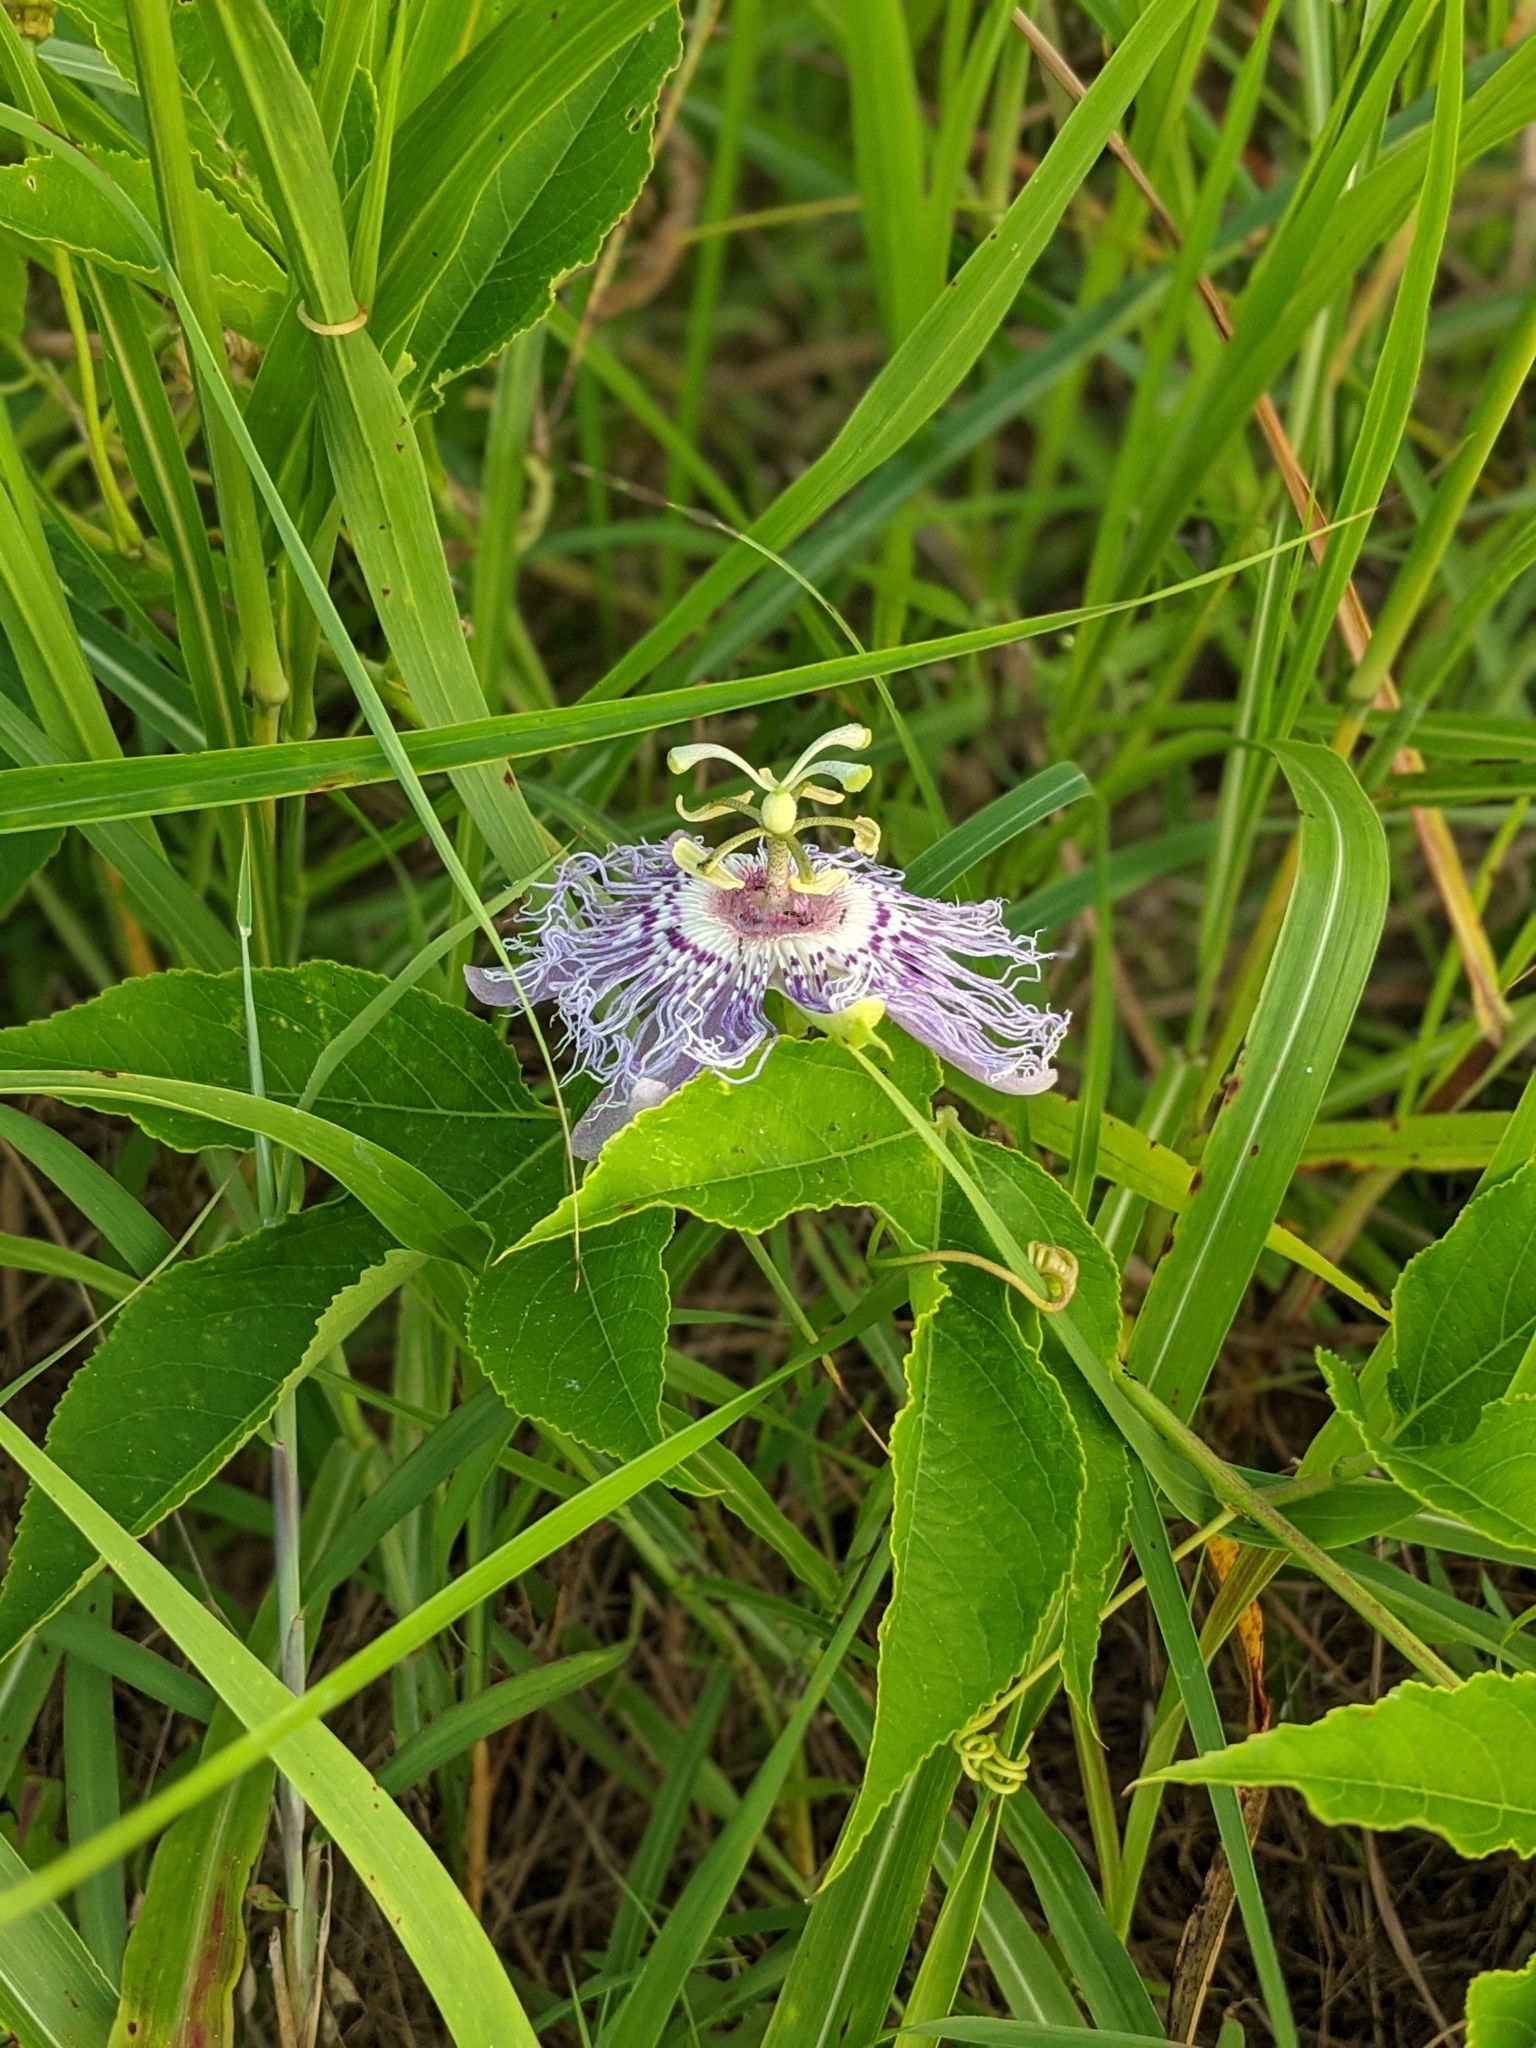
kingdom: Plantae
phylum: Tracheophyta
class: Magnoliopsida
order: Malpighiales
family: Passifloraceae
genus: Passiflora
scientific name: Passiflora incarnata
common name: Apricot-vine
